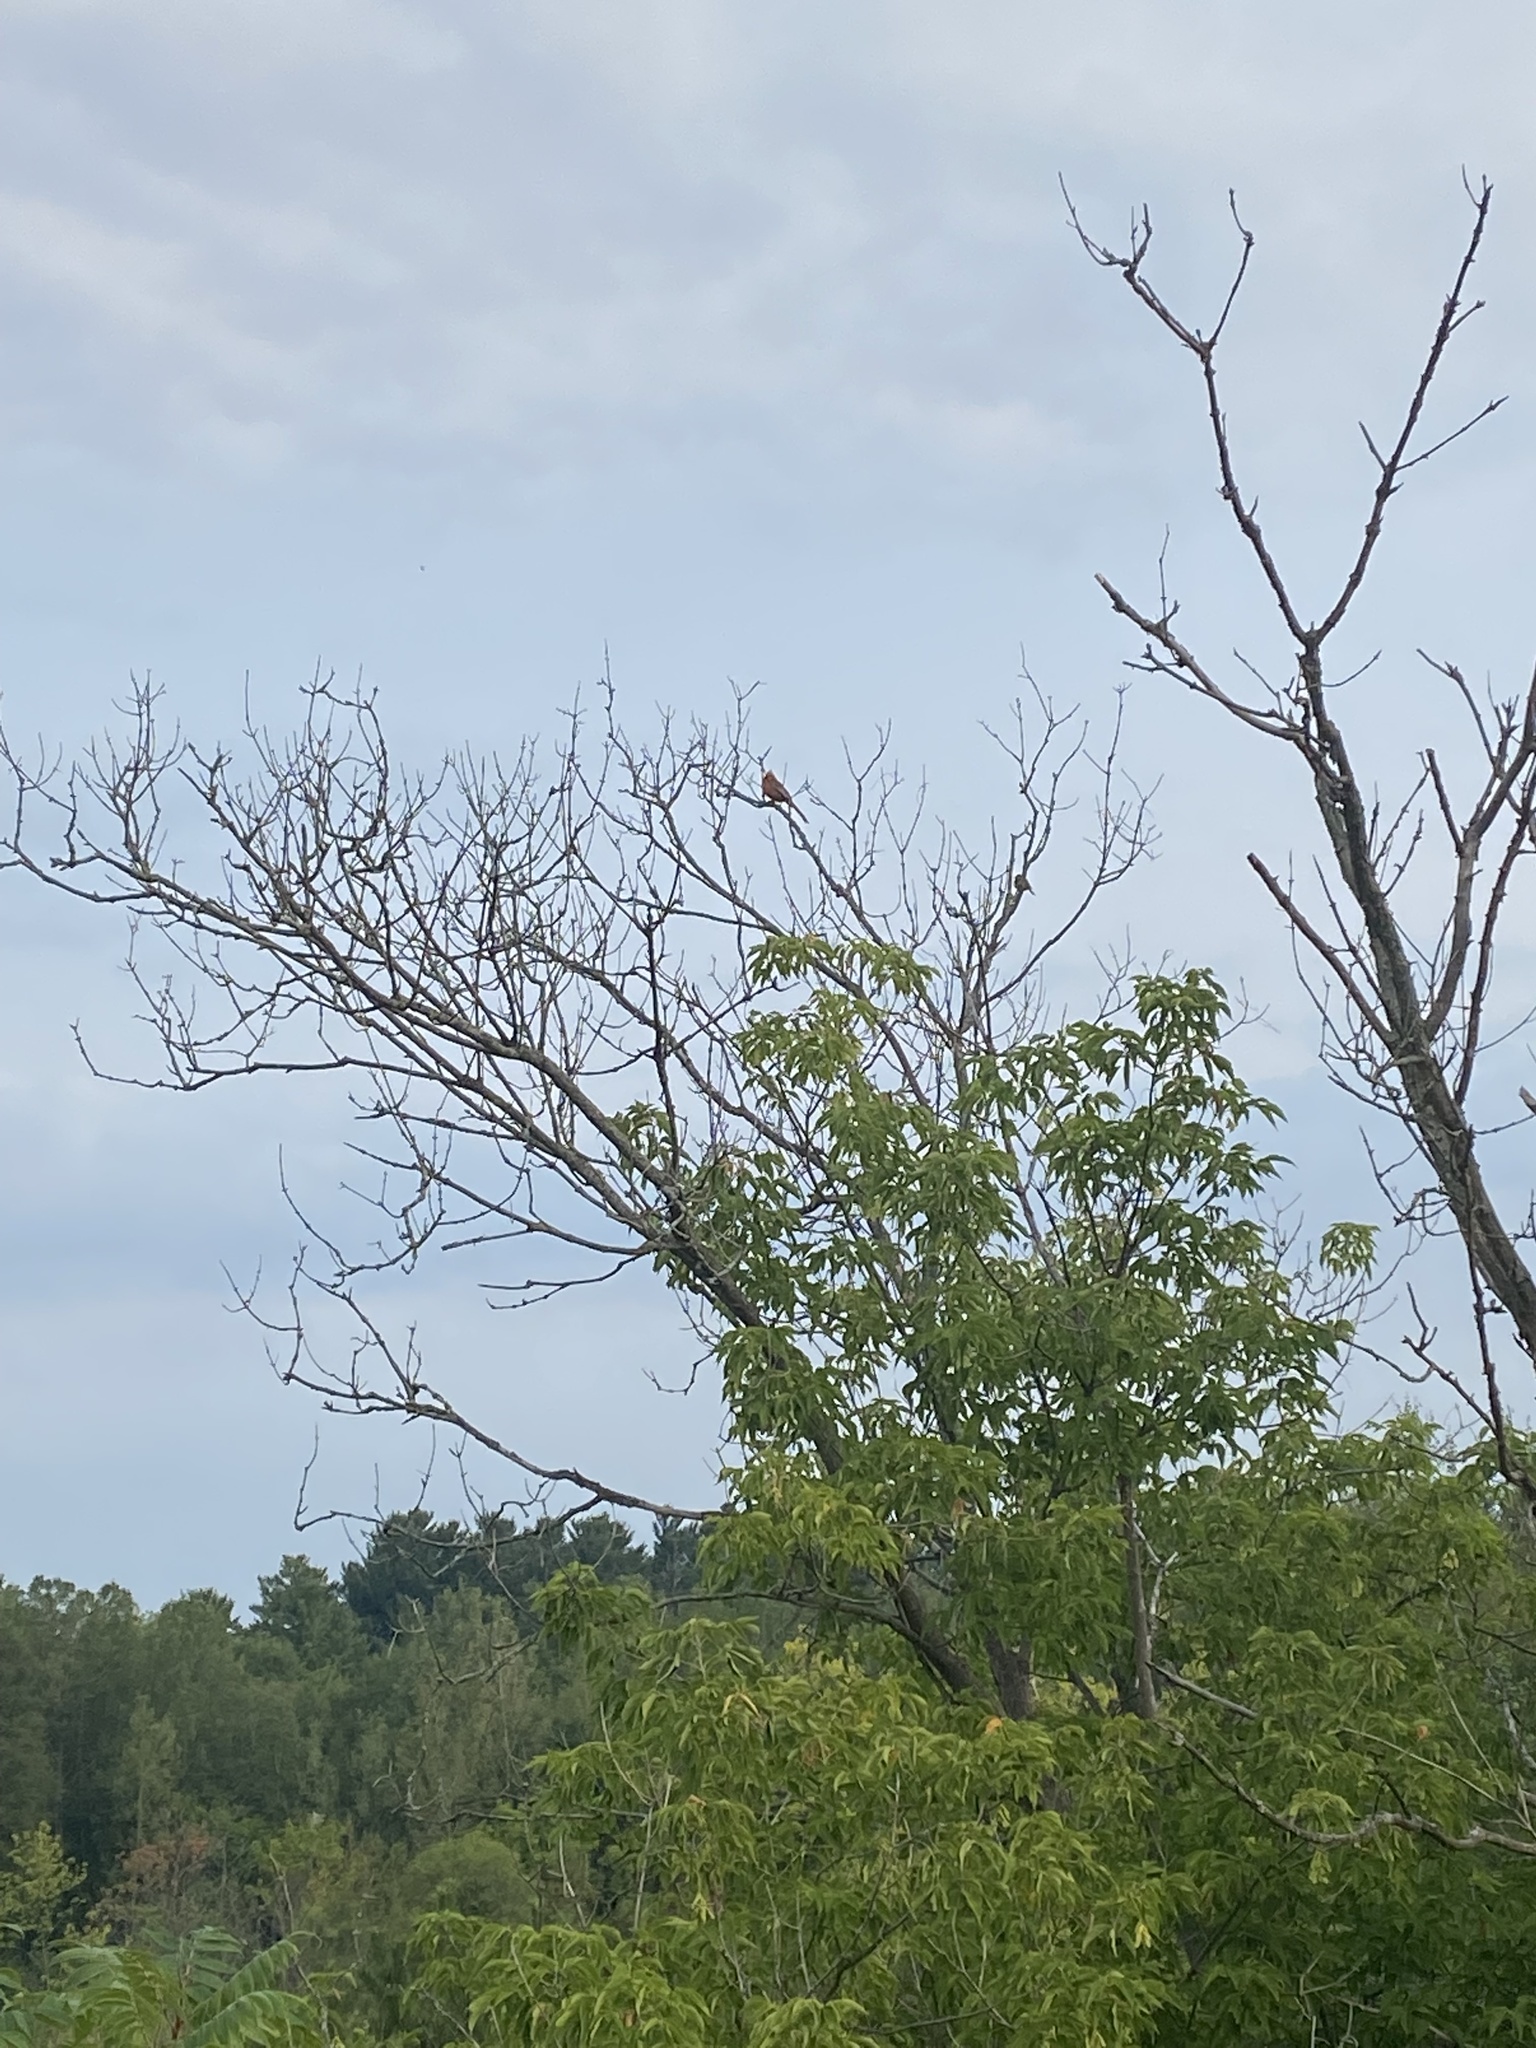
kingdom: Animalia
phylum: Chordata
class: Aves
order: Passeriformes
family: Cardinalidae
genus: Cardinalis
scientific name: Cardinalis cardinalis
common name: Northern cardinal
